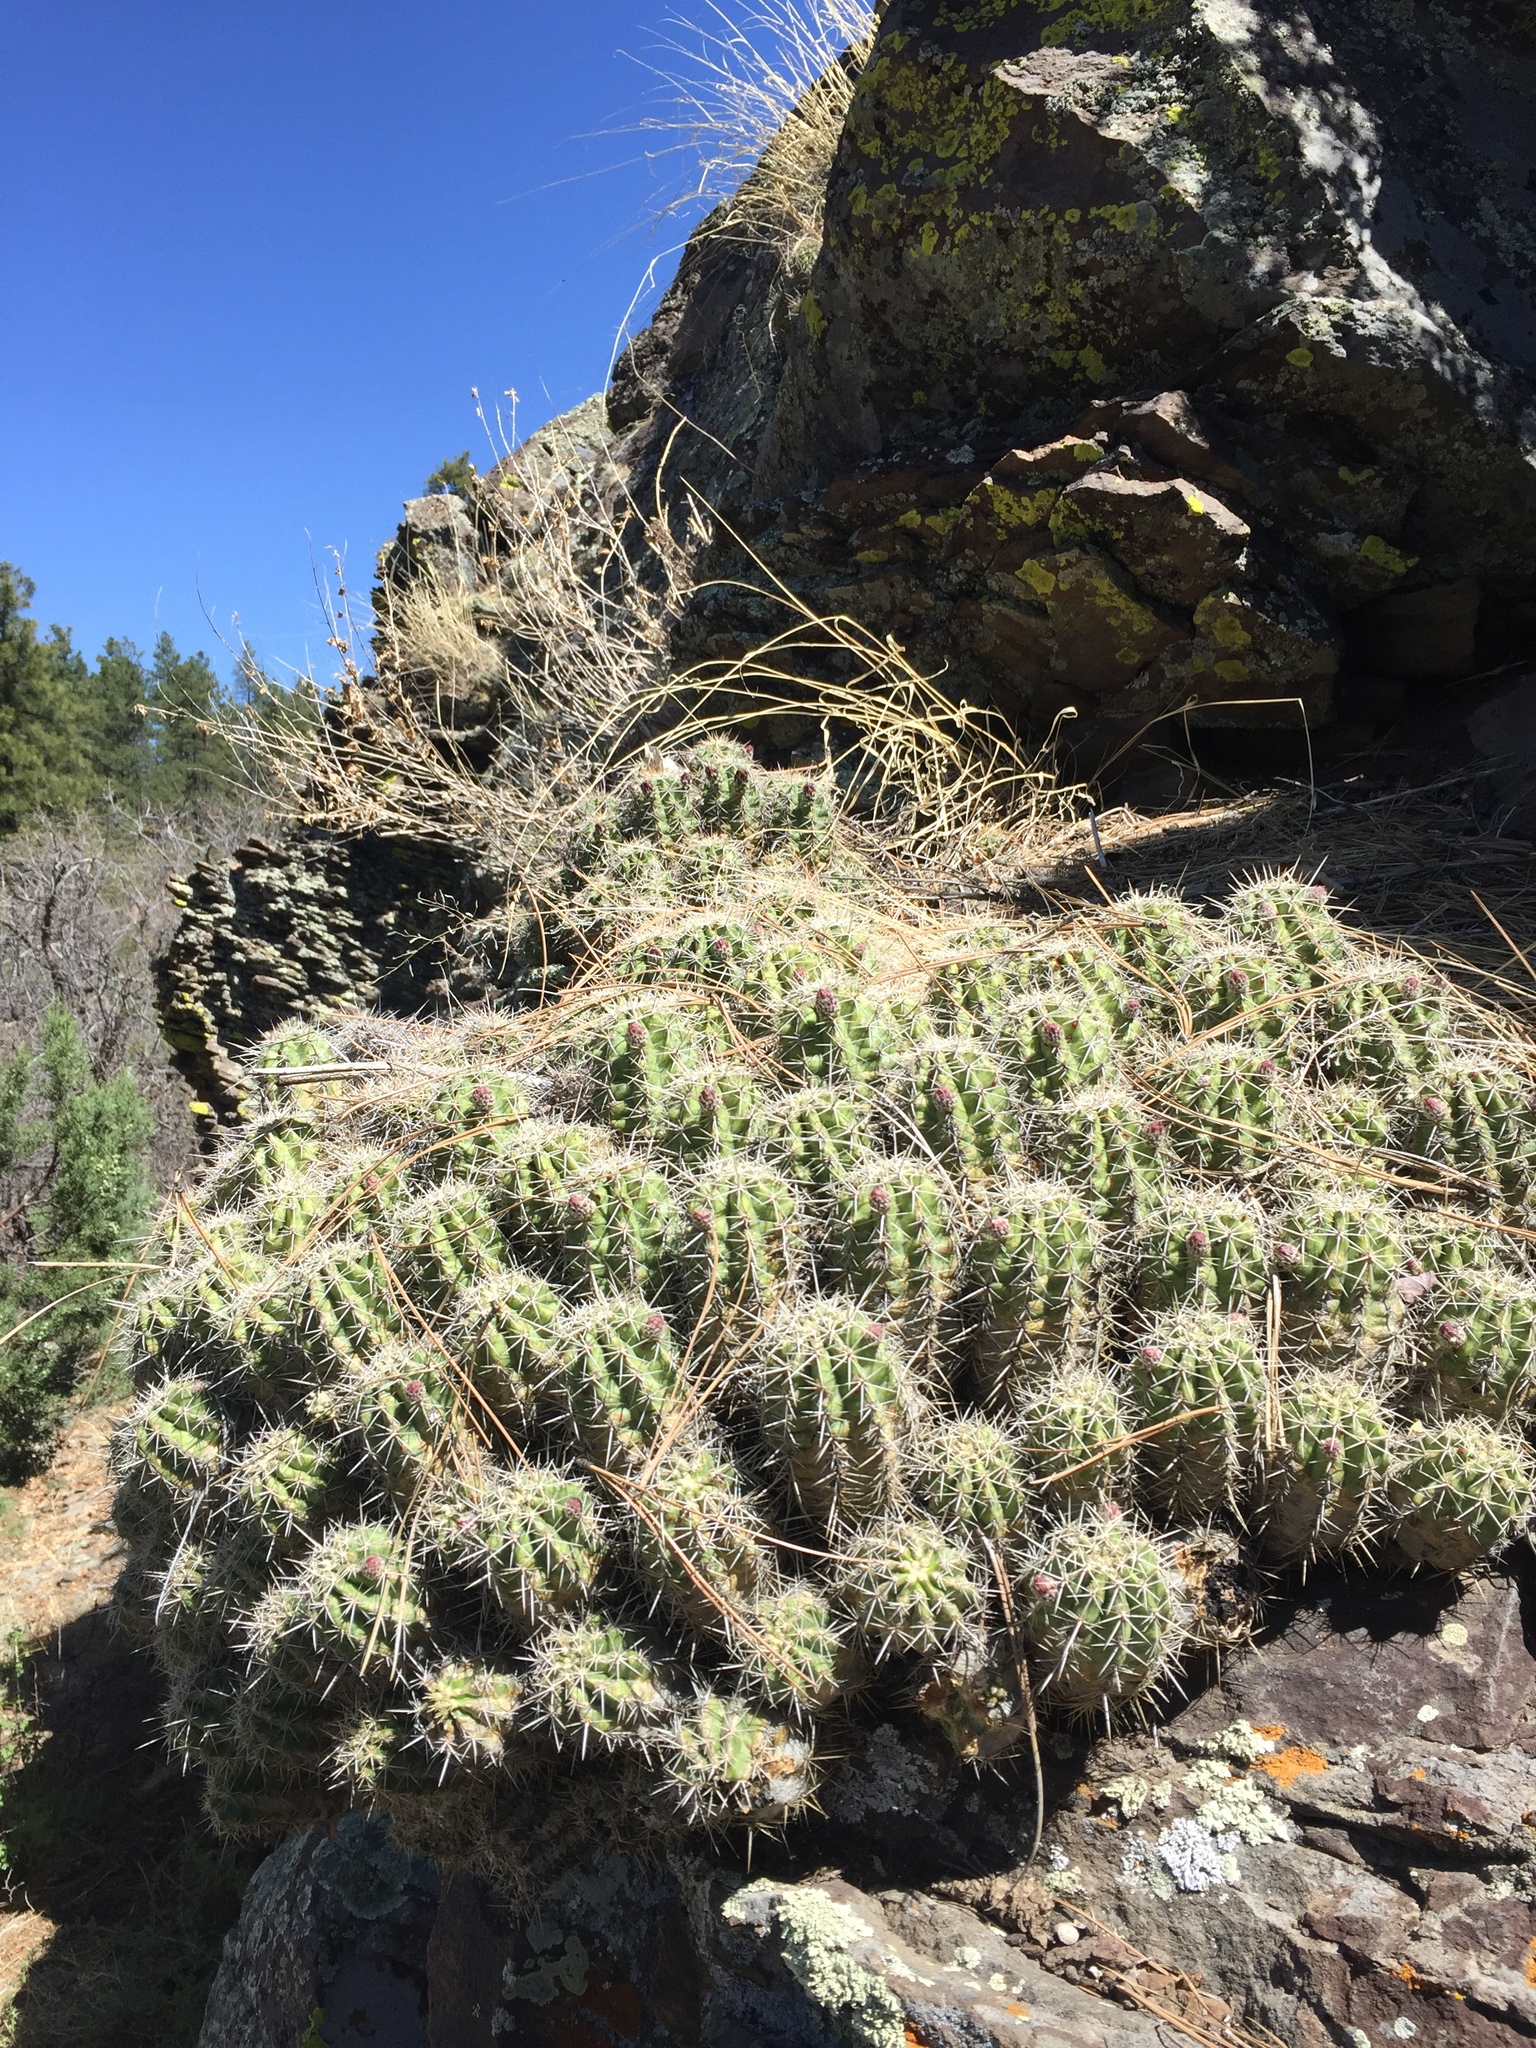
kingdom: Plantae
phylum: Tracheophyta
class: Magnoliopsida
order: Caryophyllales
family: Cactaceae
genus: Echinocereus
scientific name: Echinocereus bakeri
